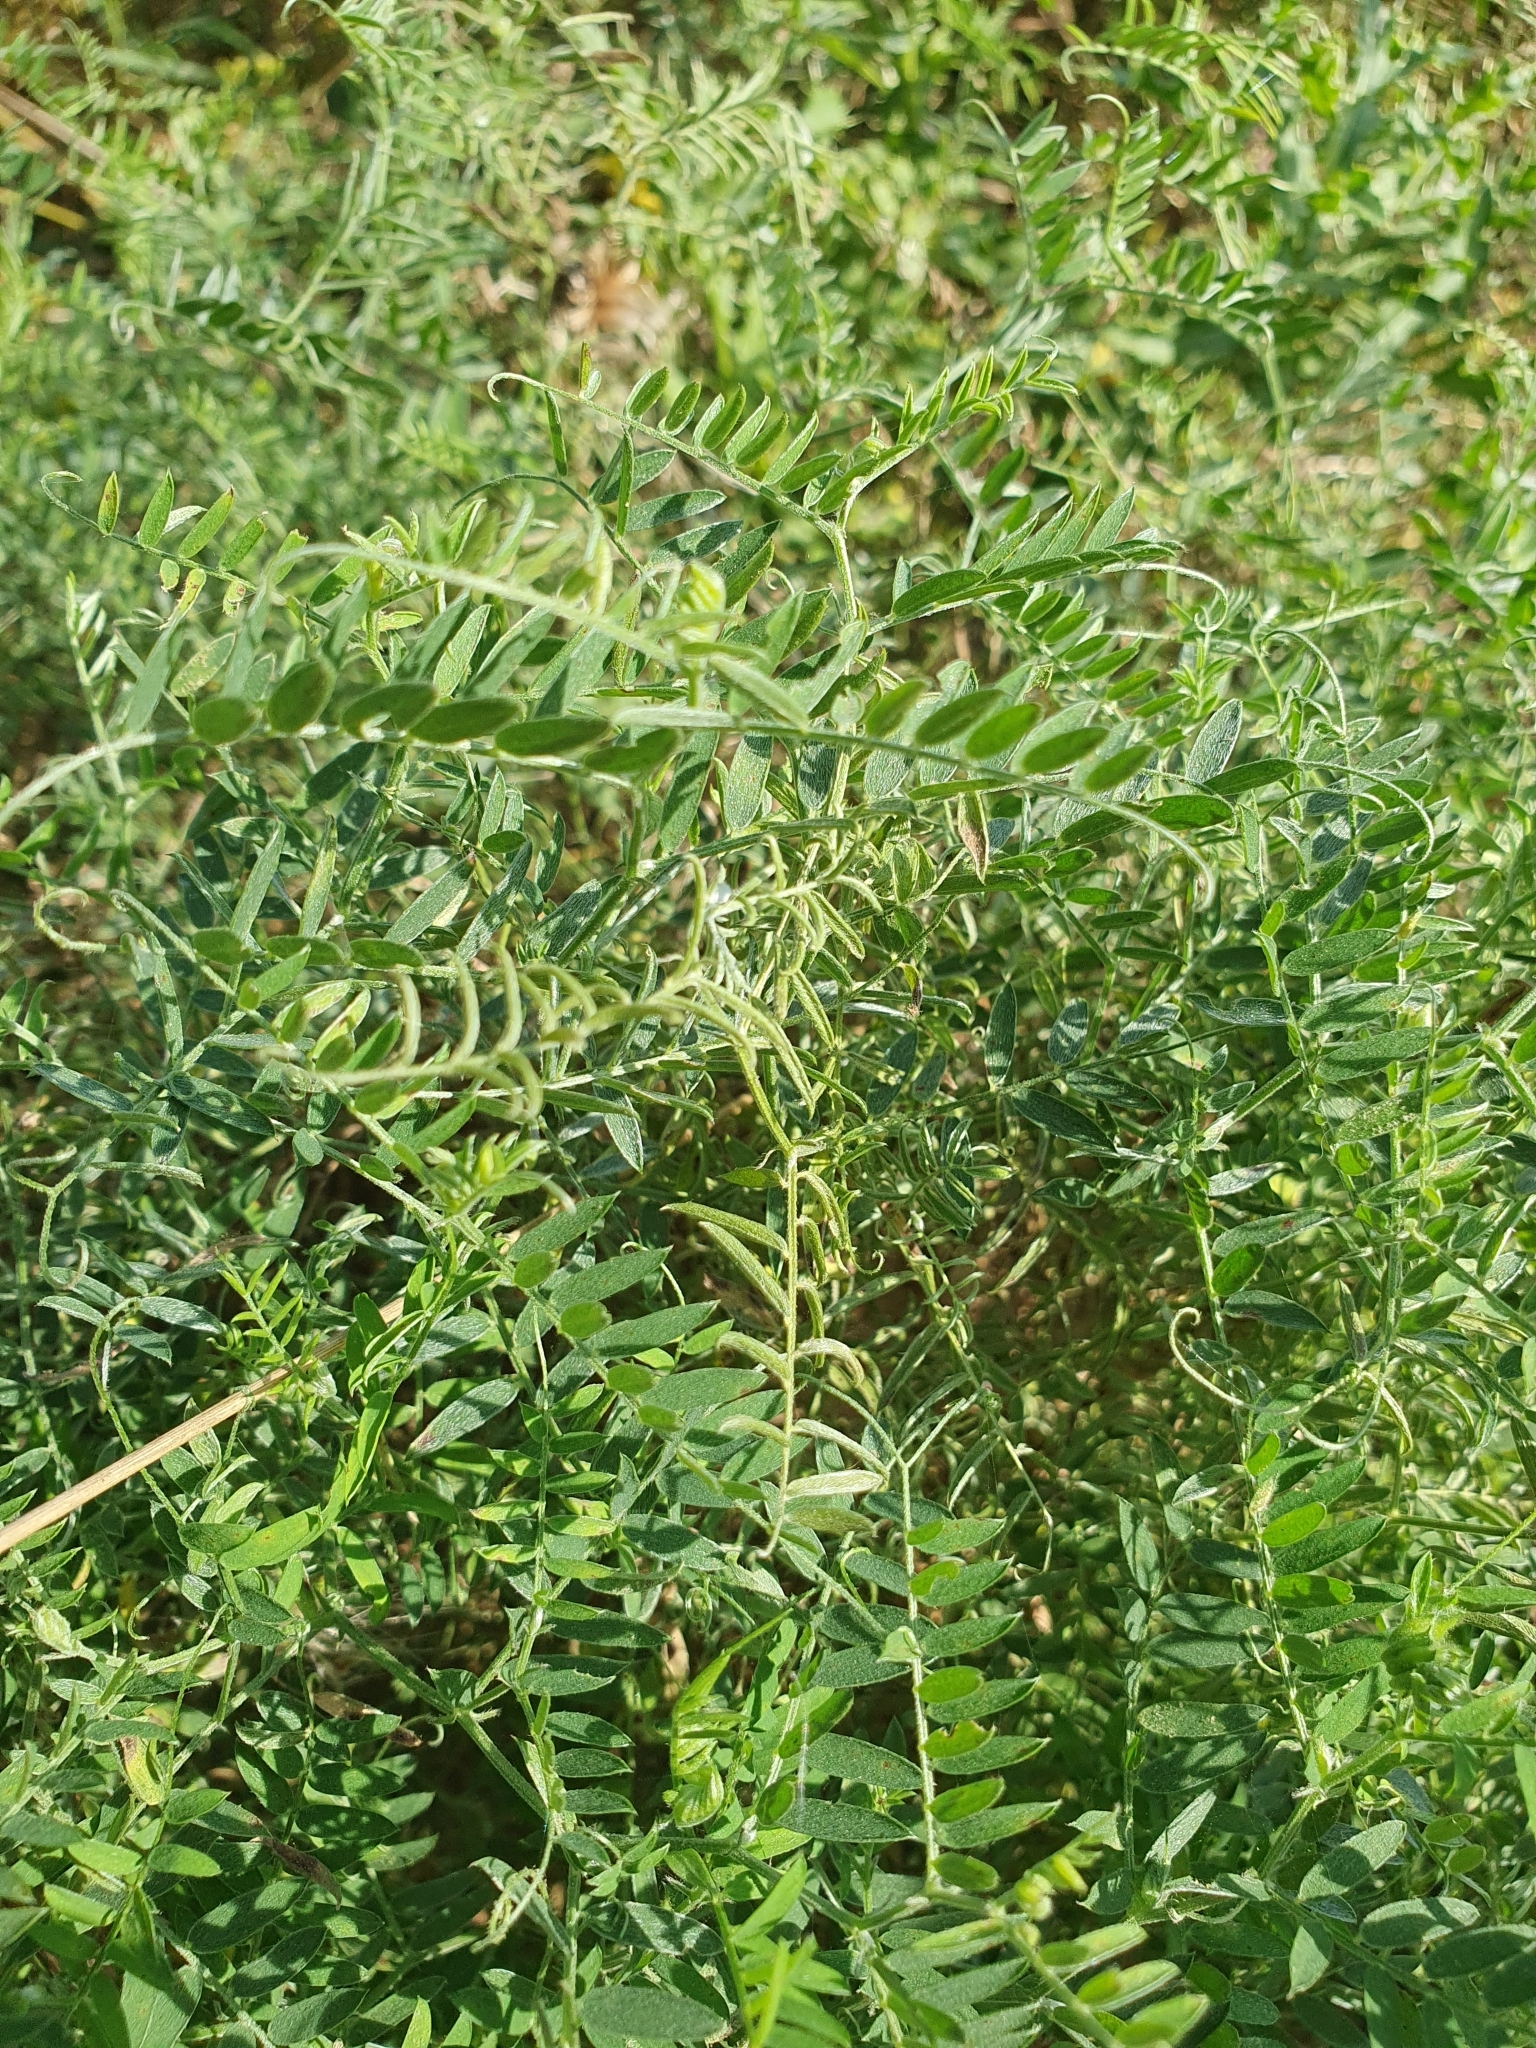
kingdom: Plantae
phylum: Tracheophyta
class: Magnoliopsida
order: Fabales
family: Fabaceae
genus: Vicia
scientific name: Vicia cracca
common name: Bird vetch
